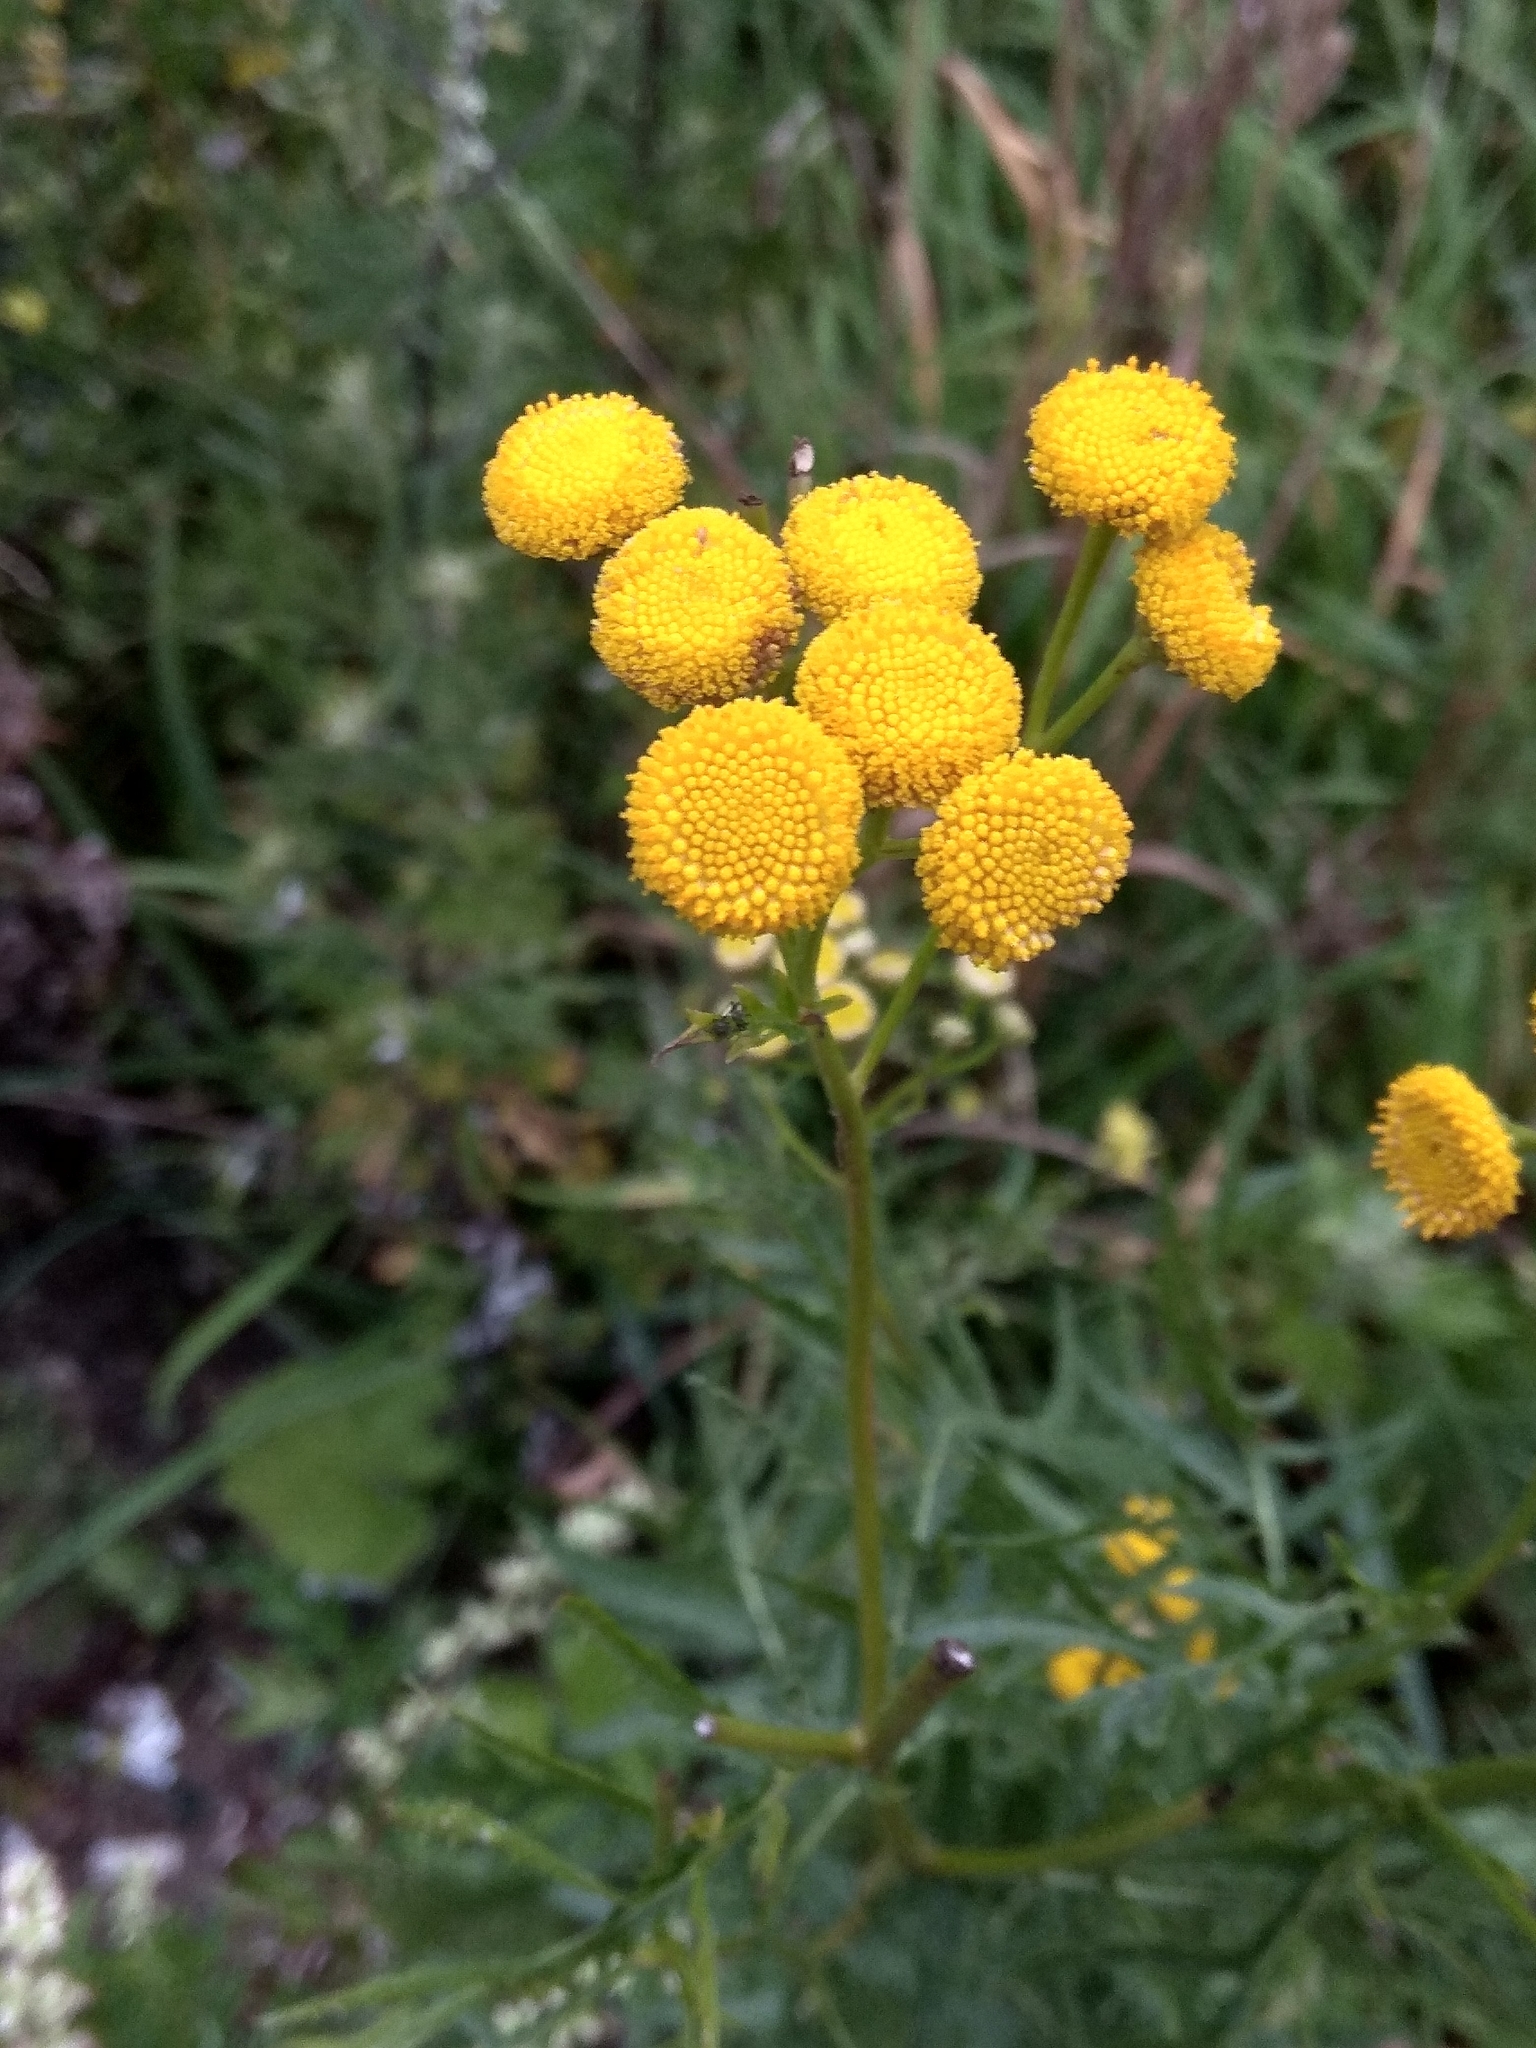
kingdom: Plantae
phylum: Tracheophyta
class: Magnoliopsida
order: Asterales
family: Asteraceae
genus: Tanacetum
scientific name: Tanacetum vulgare
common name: Common tansy
